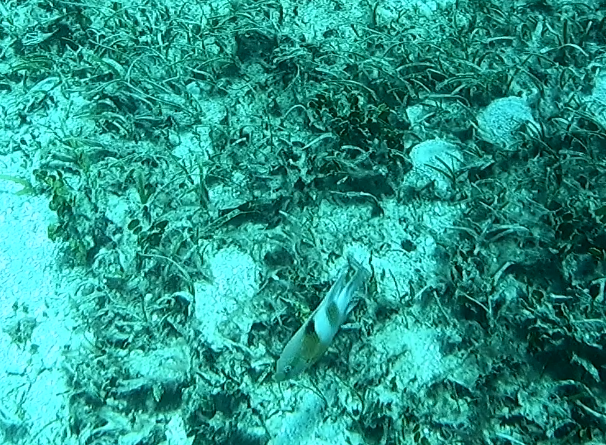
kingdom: Animalia
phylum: Chordata
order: Perciformes
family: Pomacentridae
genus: Dischistodus
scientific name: Dischistodus prosopotaenia
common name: Honey-head damsel
